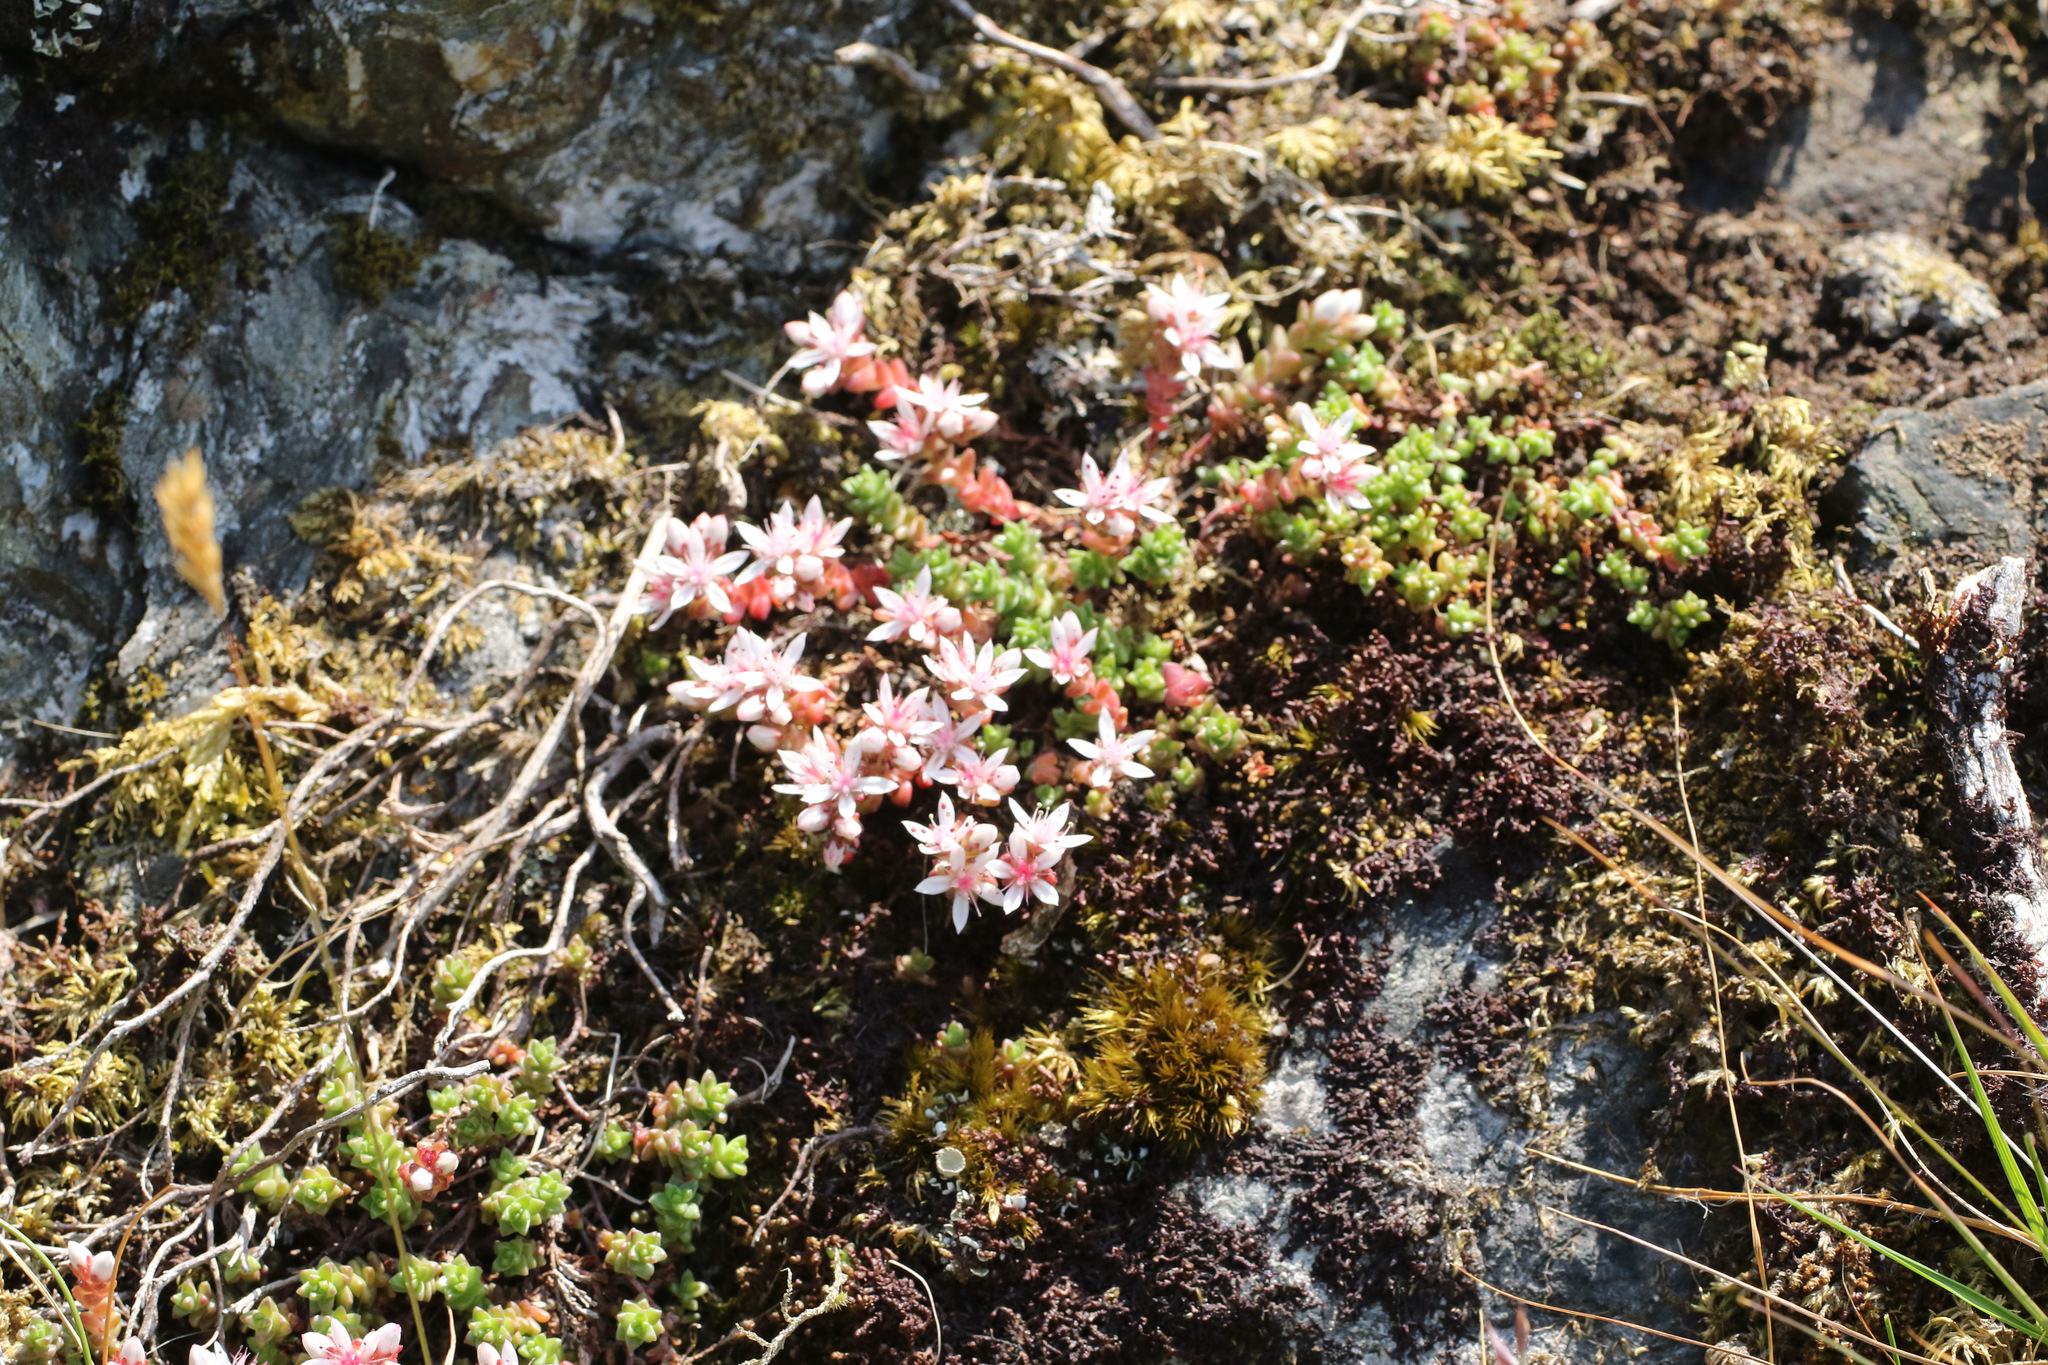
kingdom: Plantae
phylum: Tracheophyta
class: Magnoliopsida
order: Saxifragales
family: Crassulaceae
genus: Sedum
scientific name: Sedum anglicum
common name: English stonecrop
